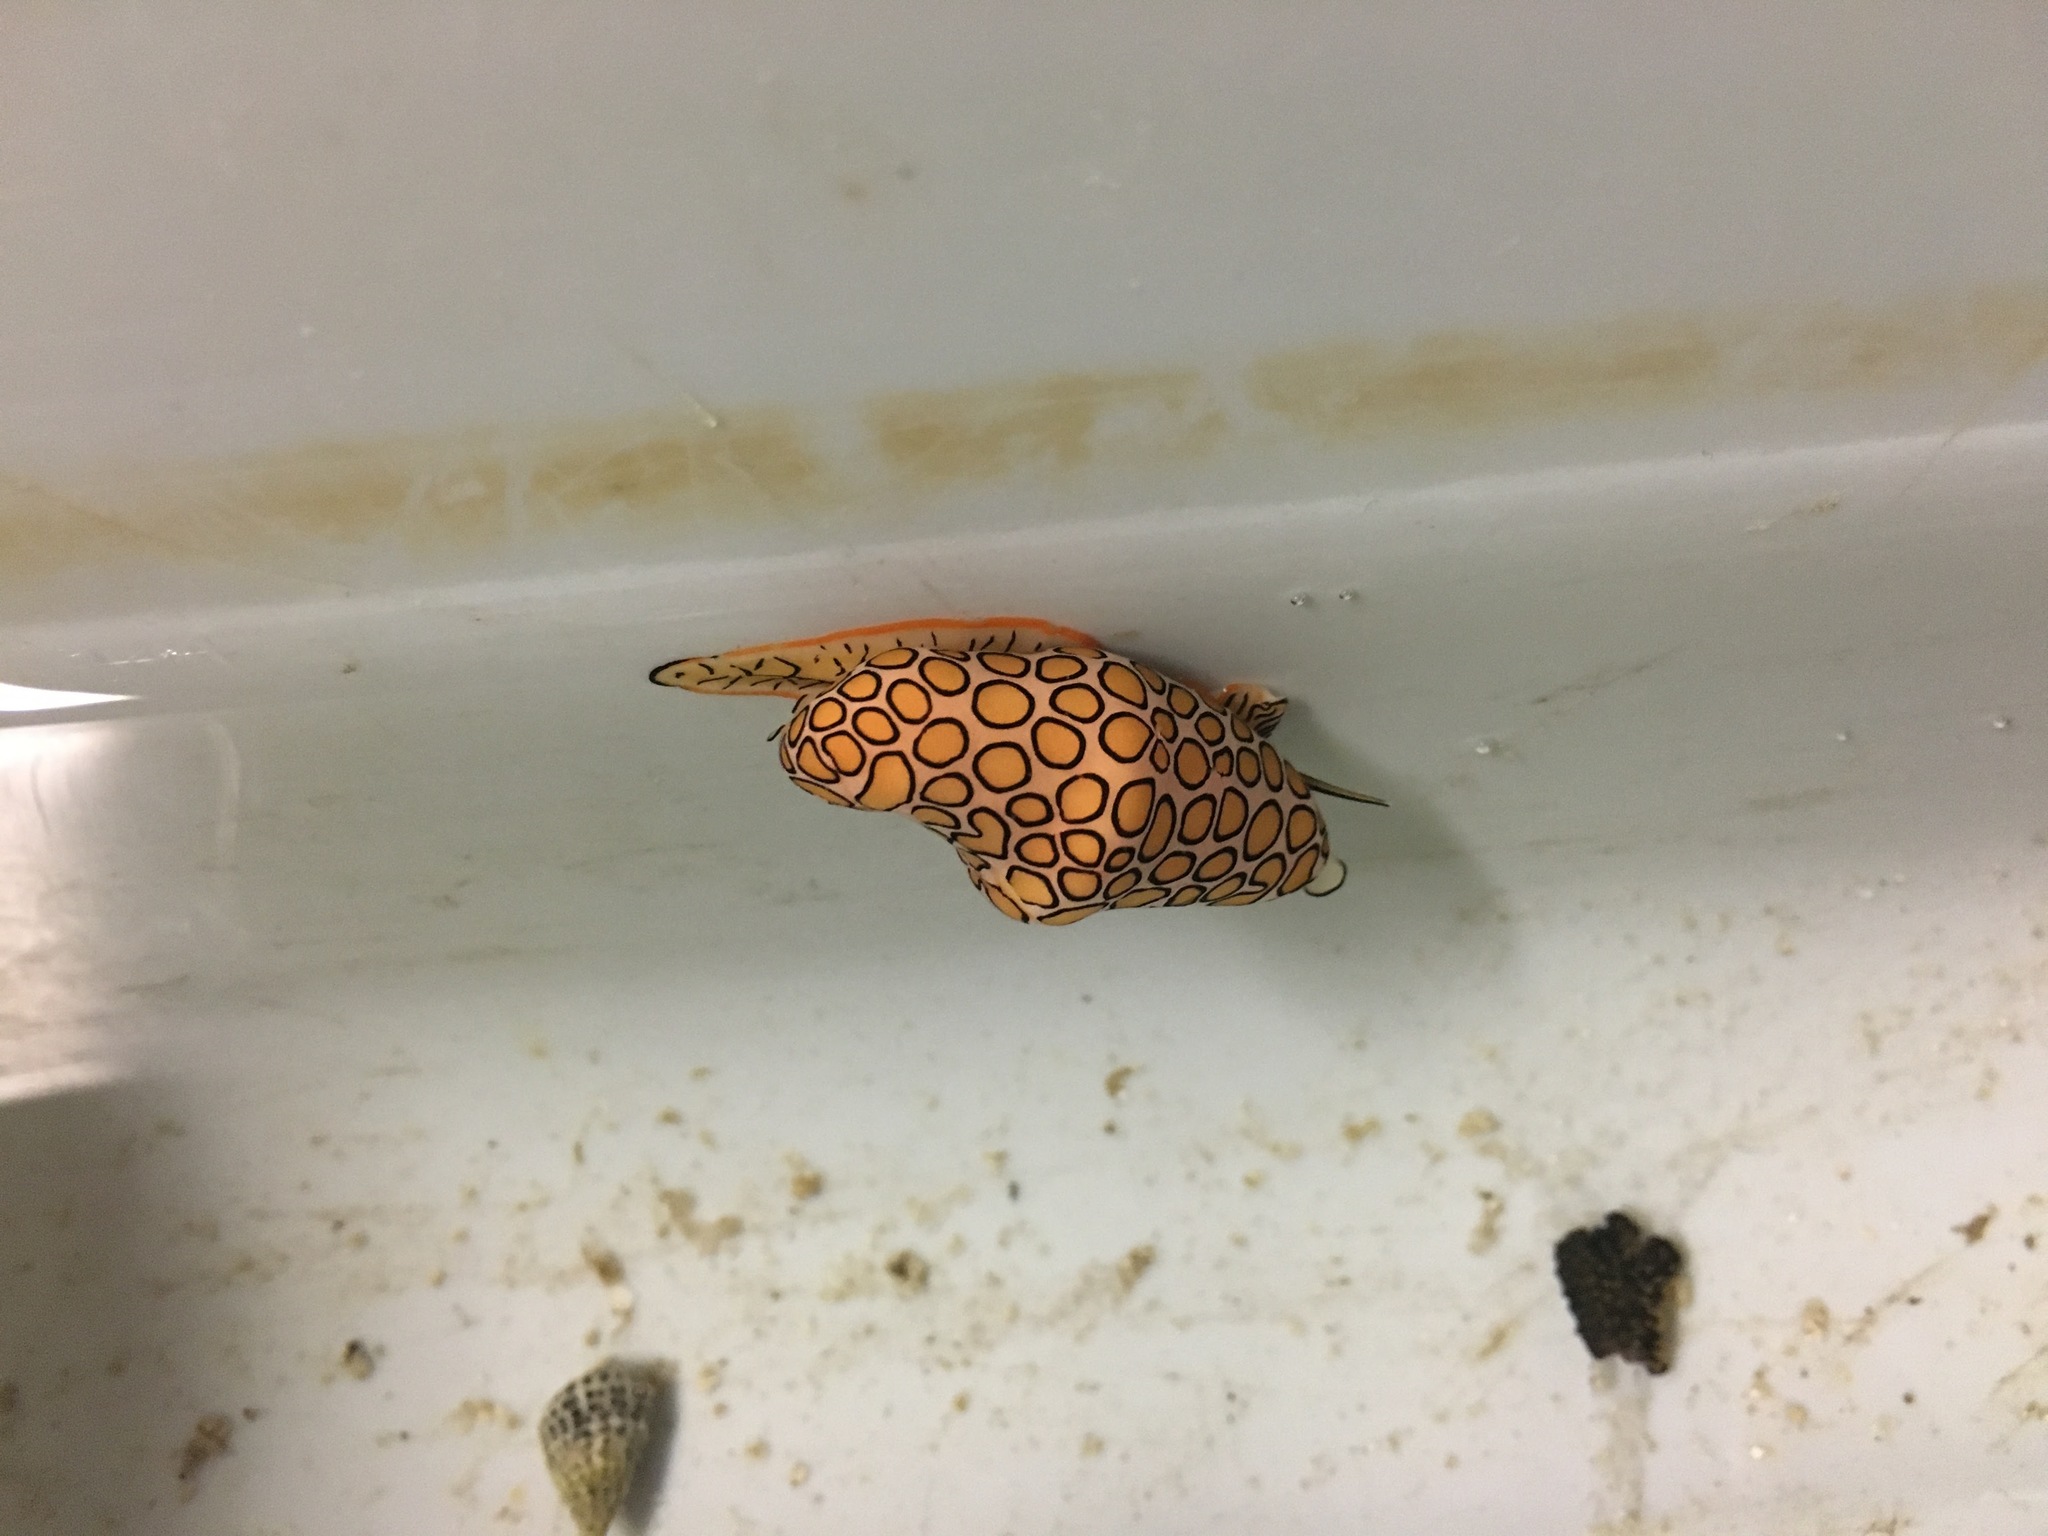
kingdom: Animalia
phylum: Mollusca
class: Gastropoda
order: Littorinimorpha
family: Ovulidae
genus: Cyphoma
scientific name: Cyphoma gibbosum
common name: Flamingo tongue
